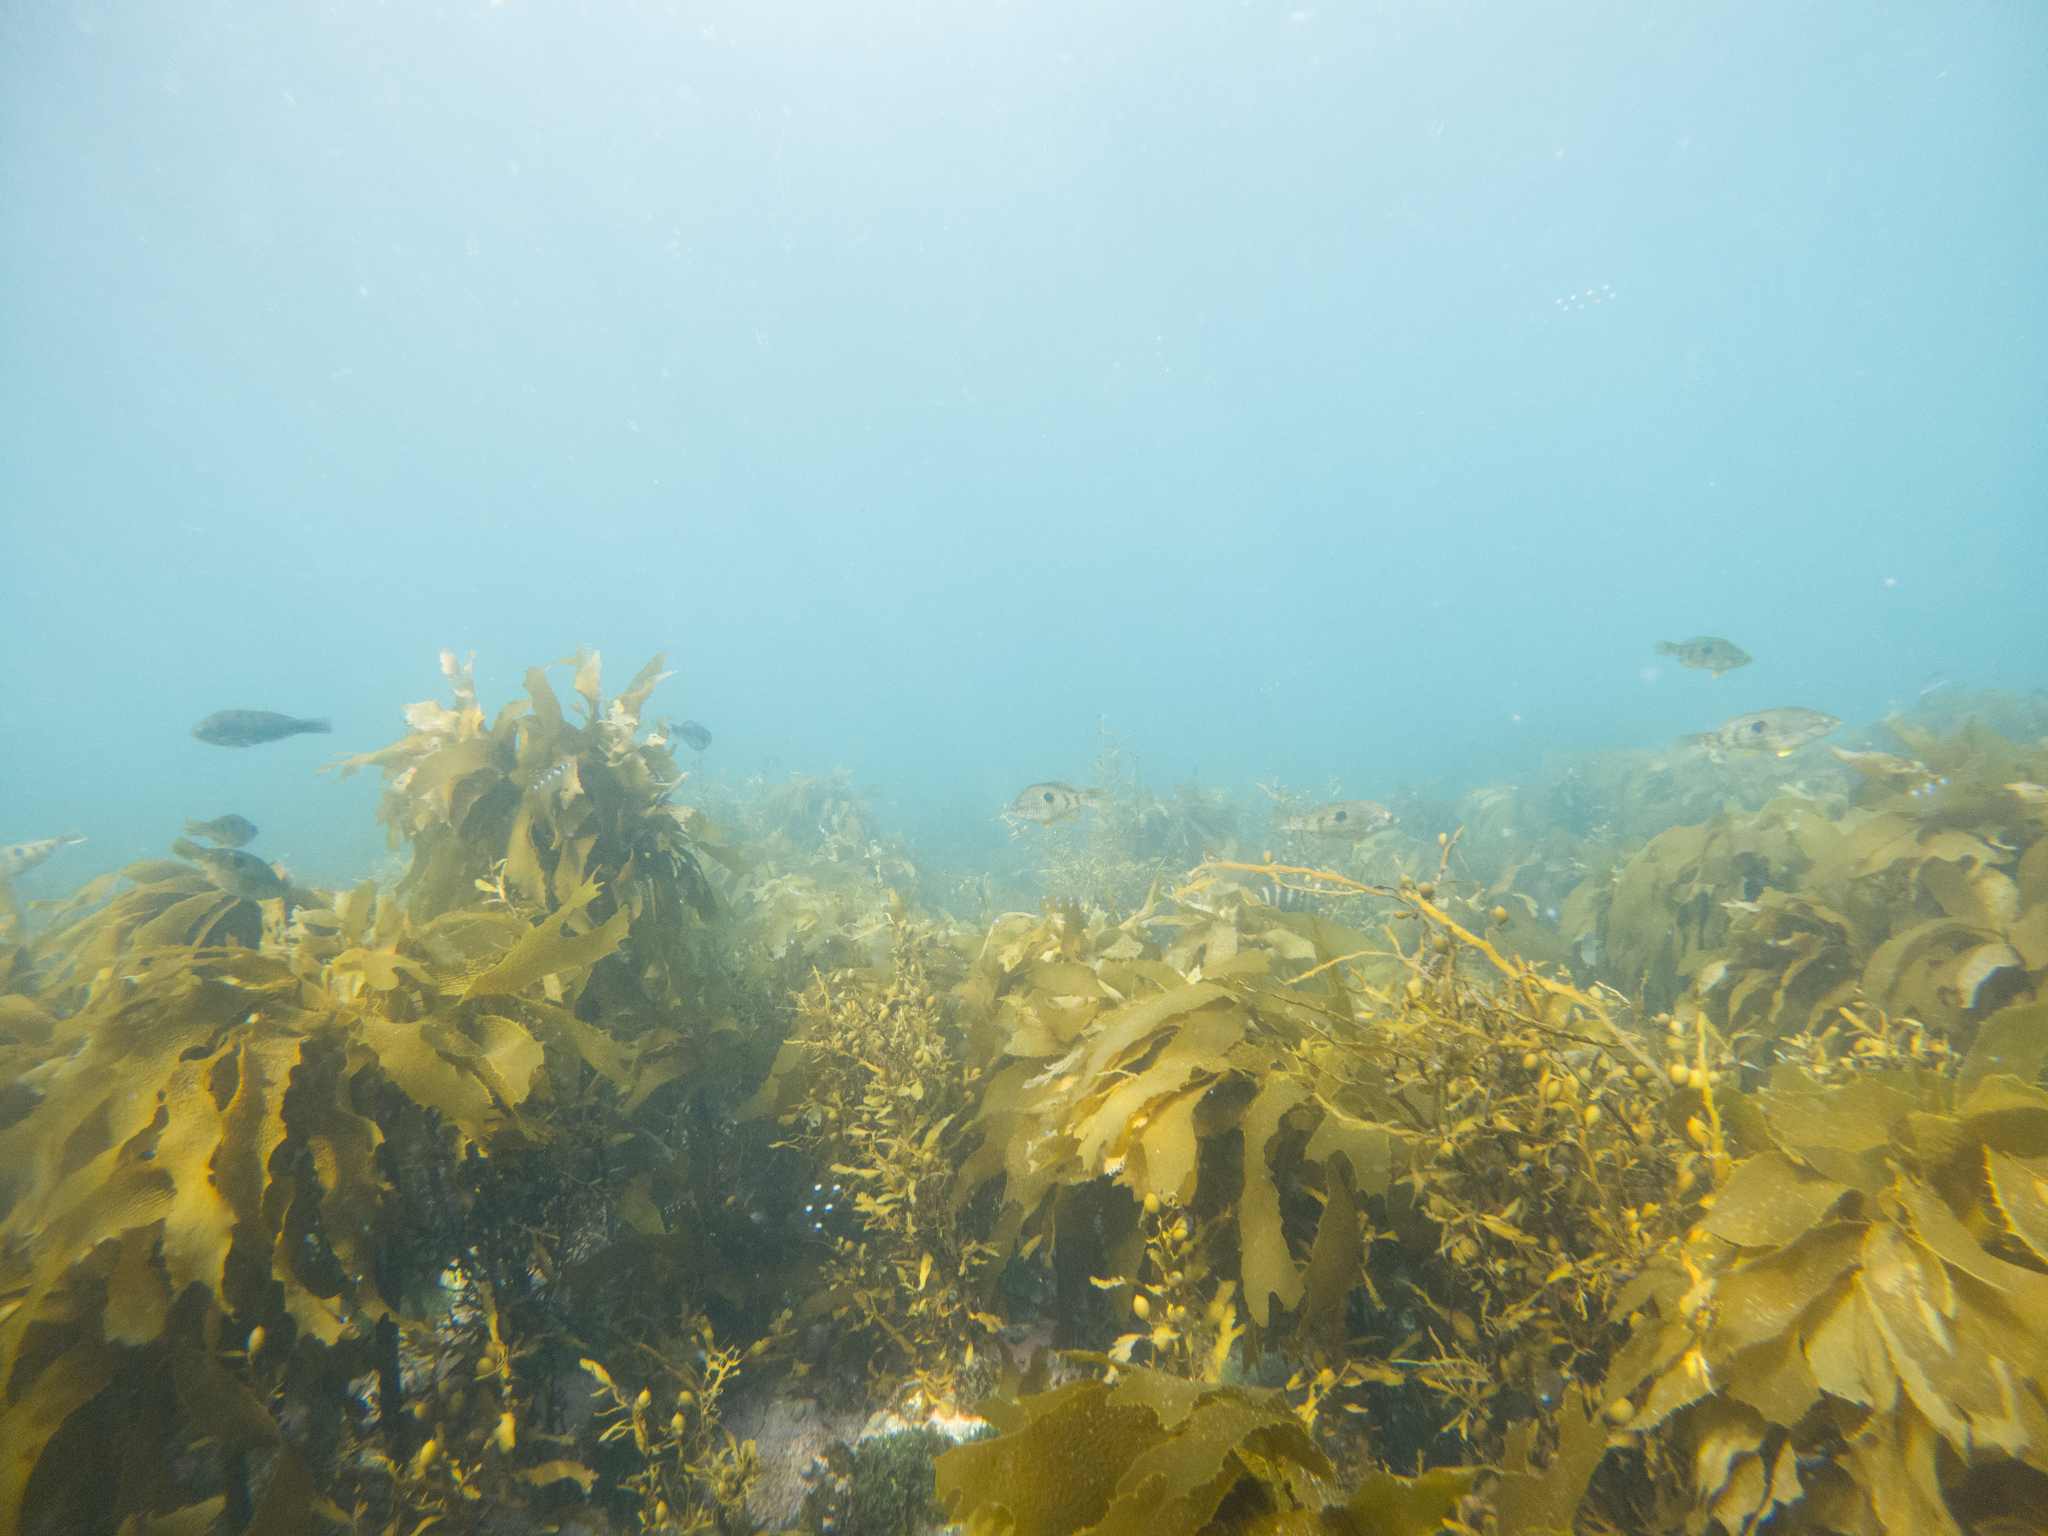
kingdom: Animalia
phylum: Chordata
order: Perciformes
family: Labridae
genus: Notolabrus
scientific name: Notolabrus celidotus
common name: Spotty
